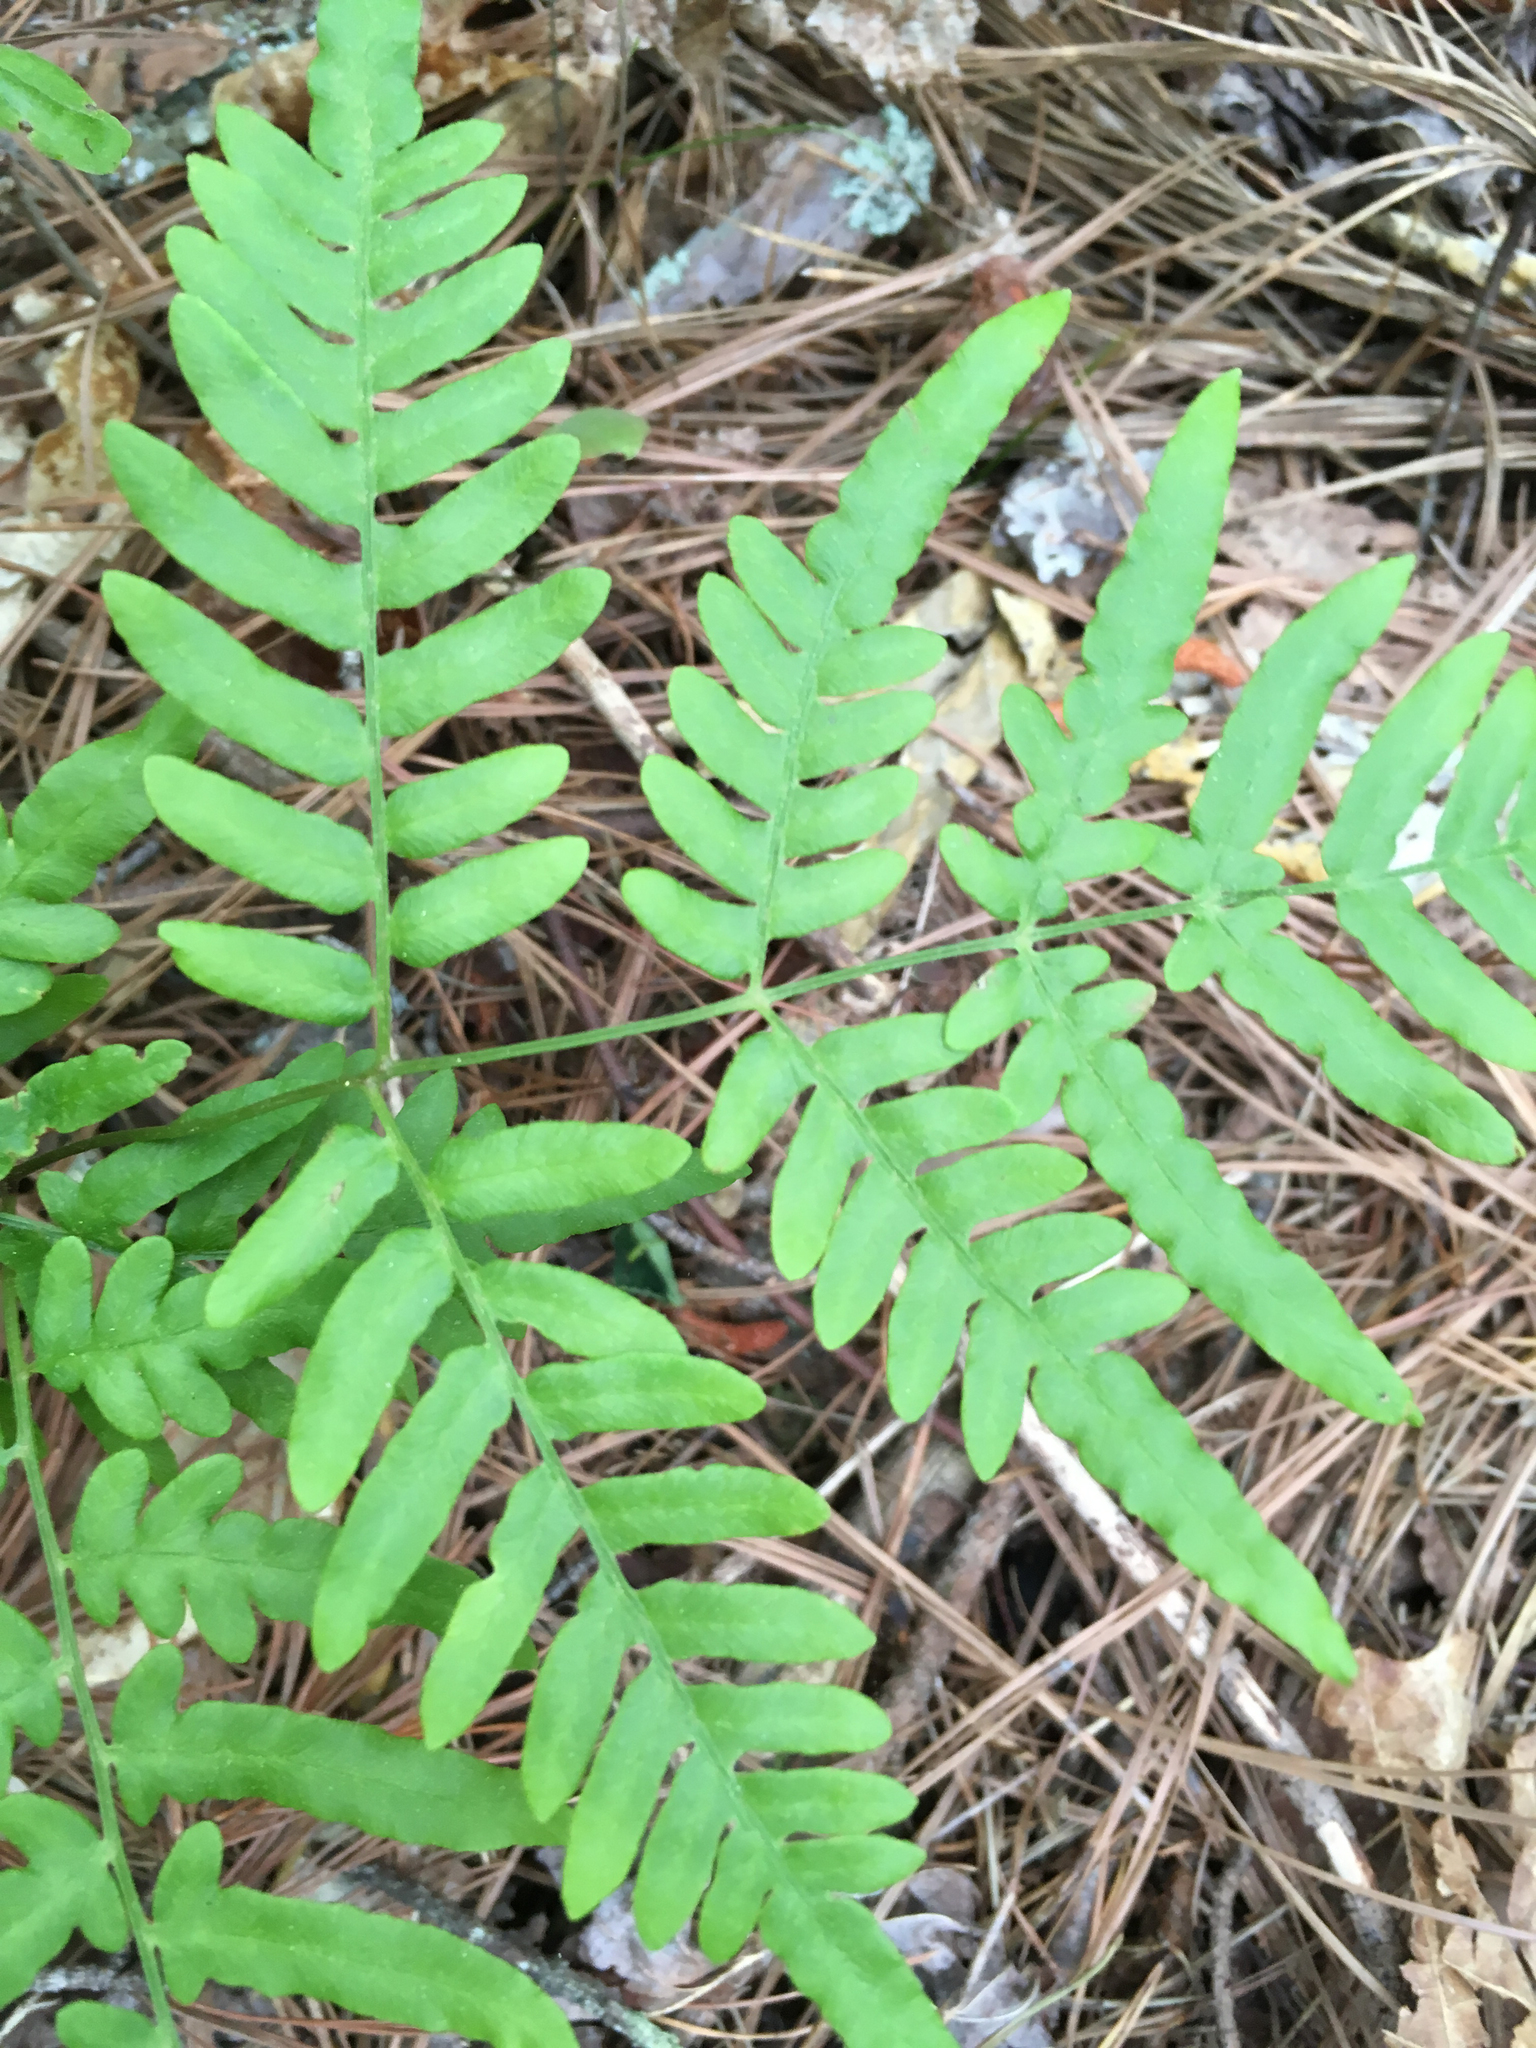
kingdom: Plantae
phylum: Tracheophyta
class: Polypodiopsida
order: Polypodiales
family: Dennstaedtiaceae
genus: Pteridium
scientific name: Pteridium aquilinum
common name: Bracken
